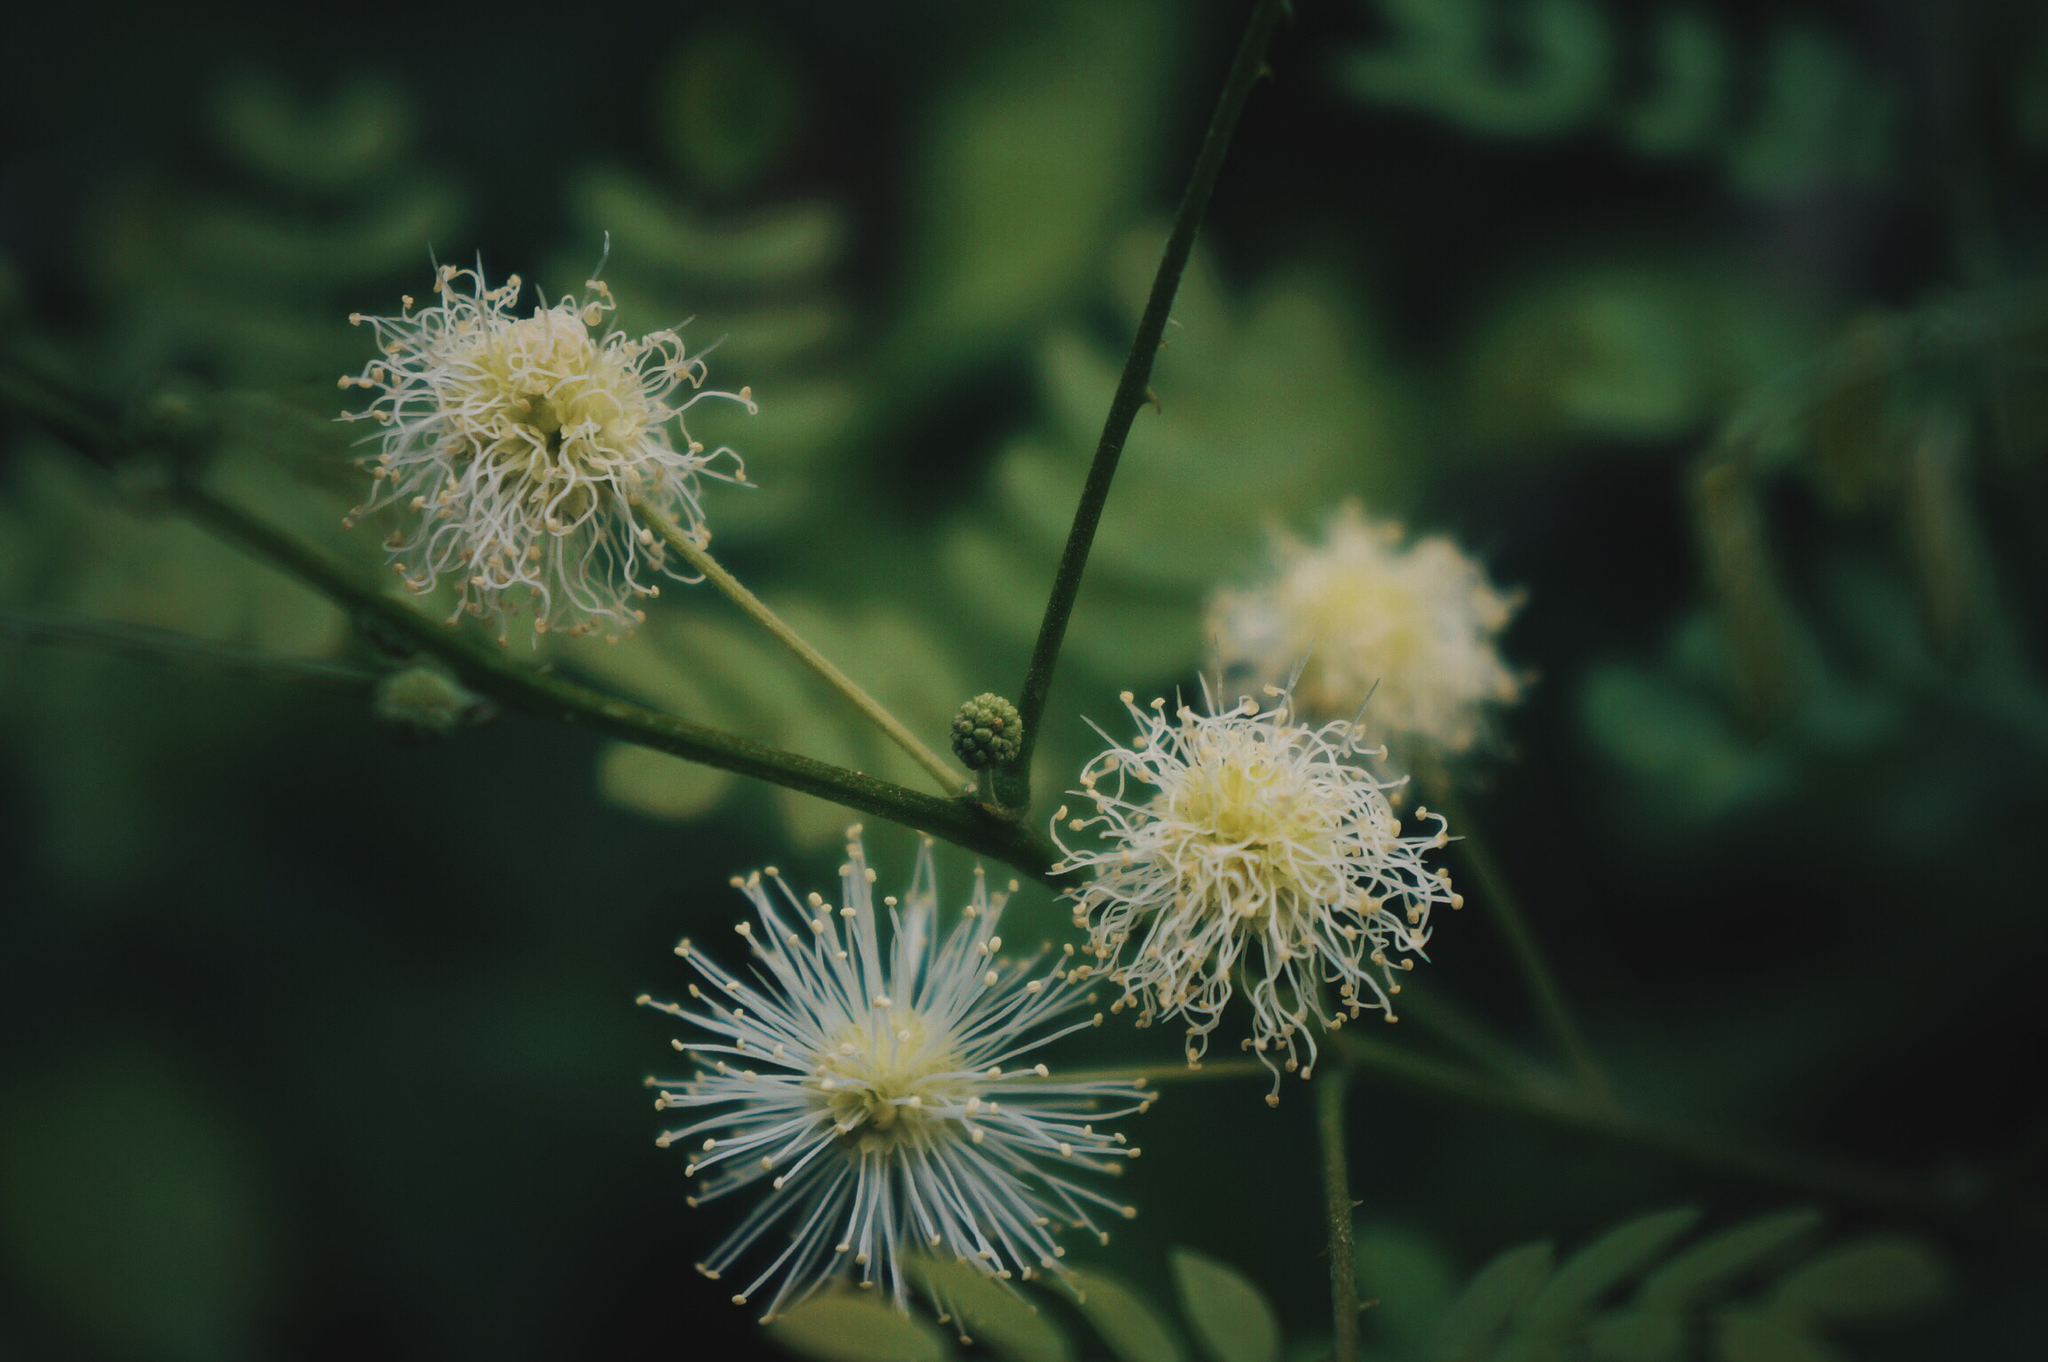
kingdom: Plantae
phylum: Tracheophyta
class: Magnoliopsida
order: Fabales
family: Fabaceae
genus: Mimosa
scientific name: Mimosa malacophylla
